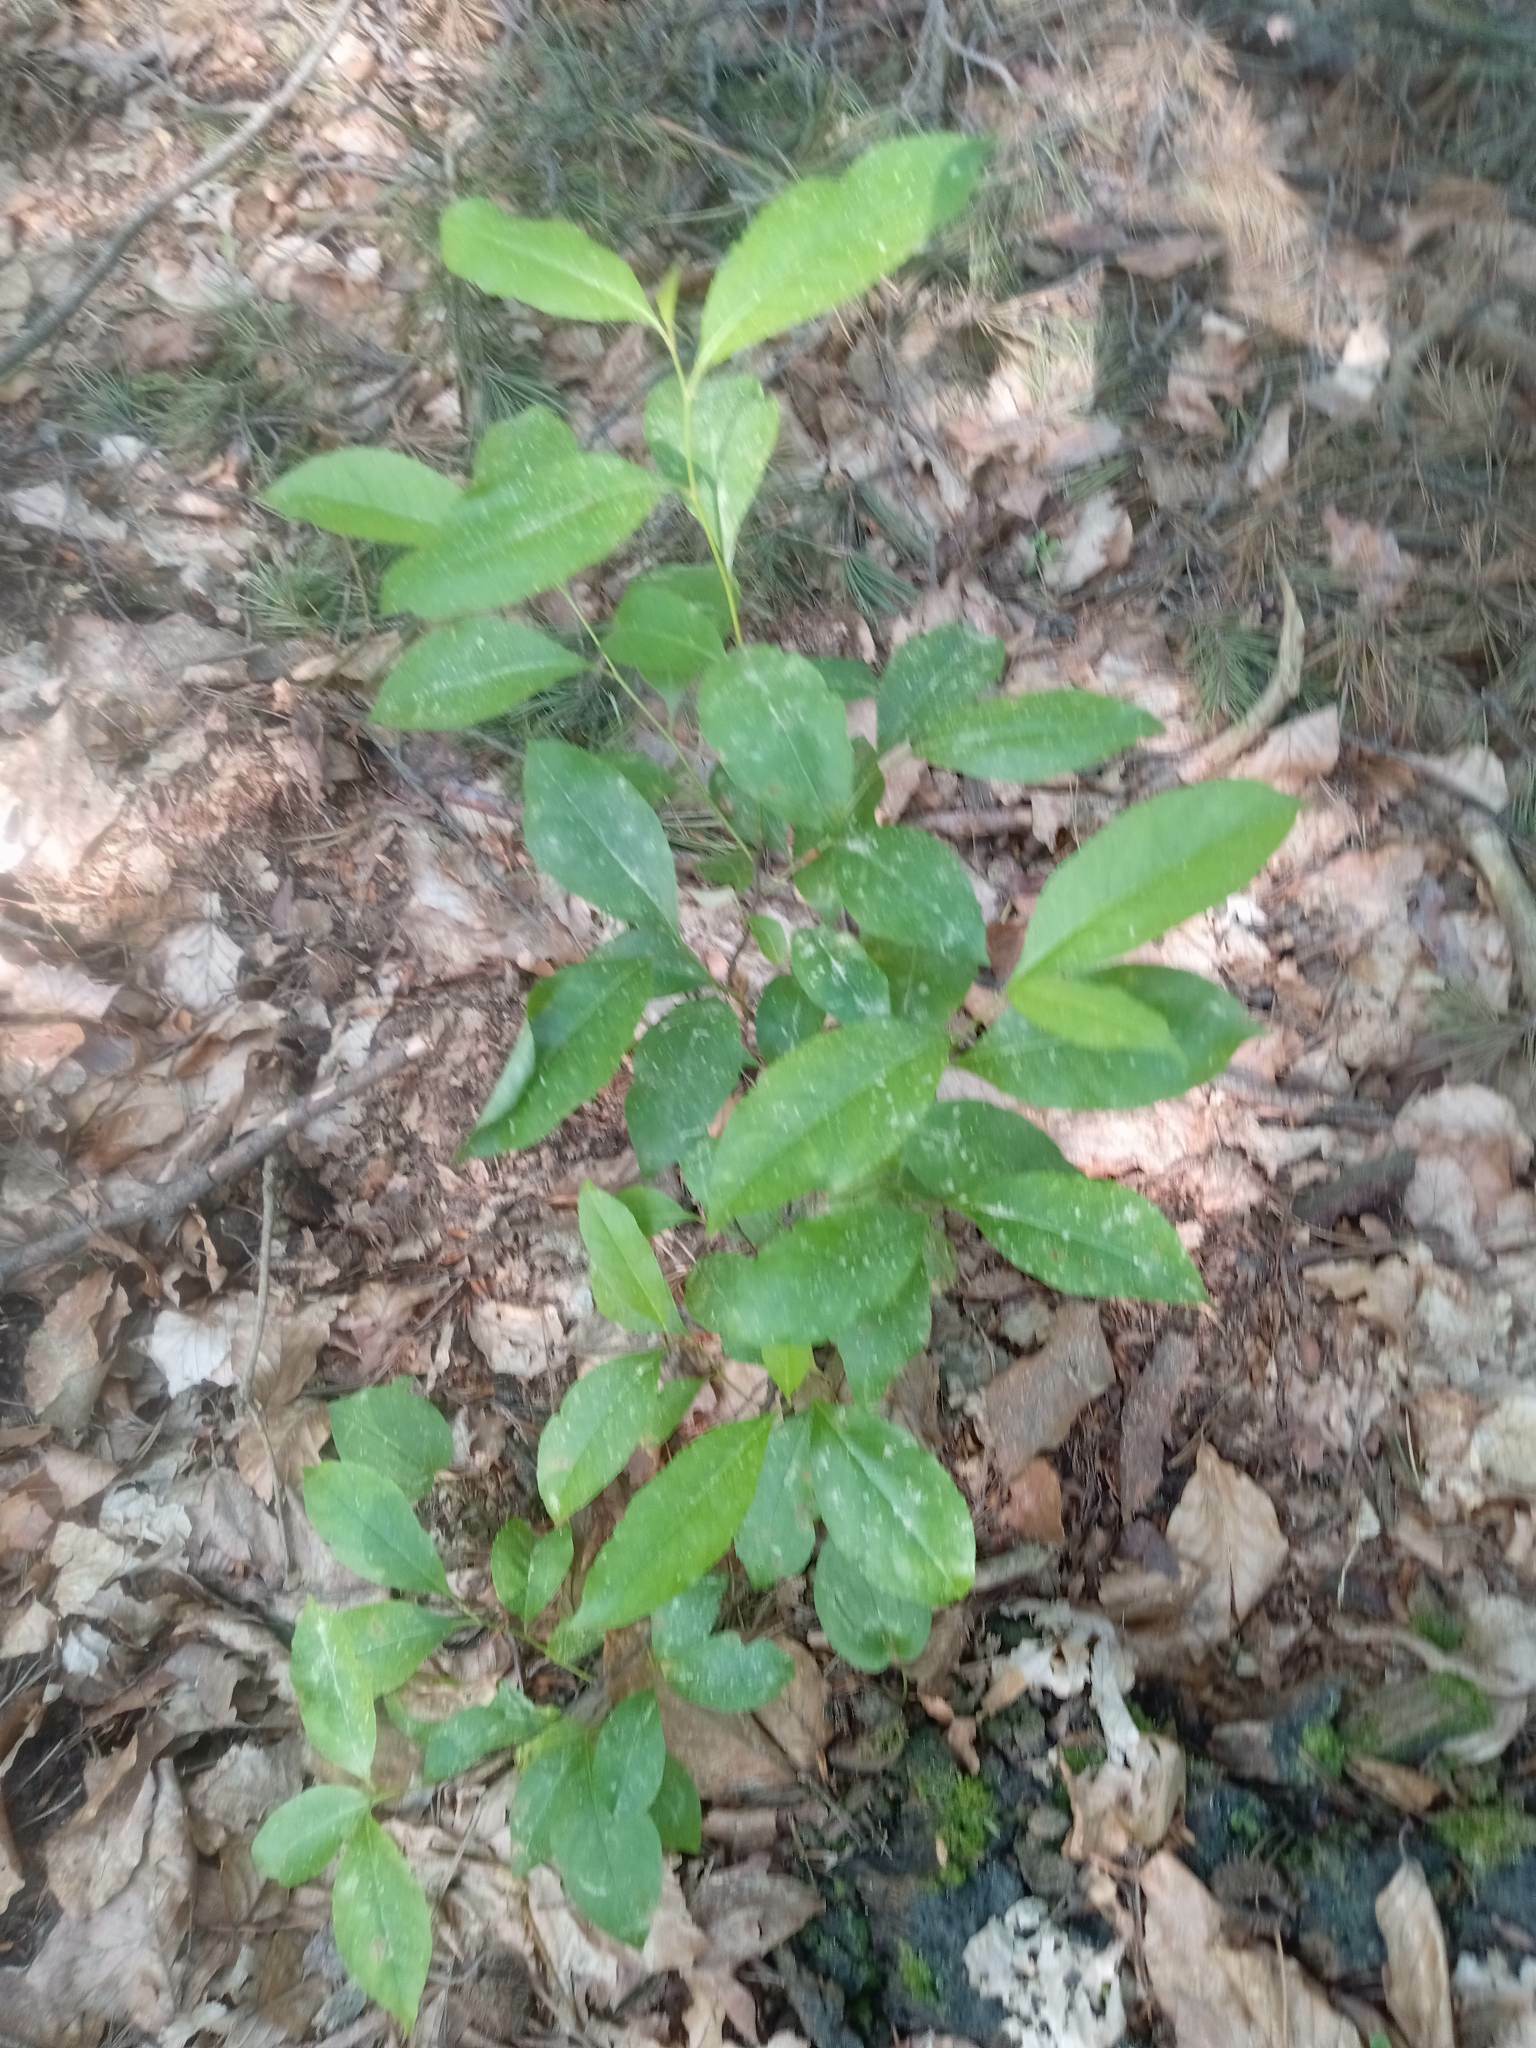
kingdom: Plantae
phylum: Tracheophyta
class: Magnoliopsida
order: Rosales
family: Rosaceae
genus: Prunus
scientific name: Prunus serotina
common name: Black cherry
